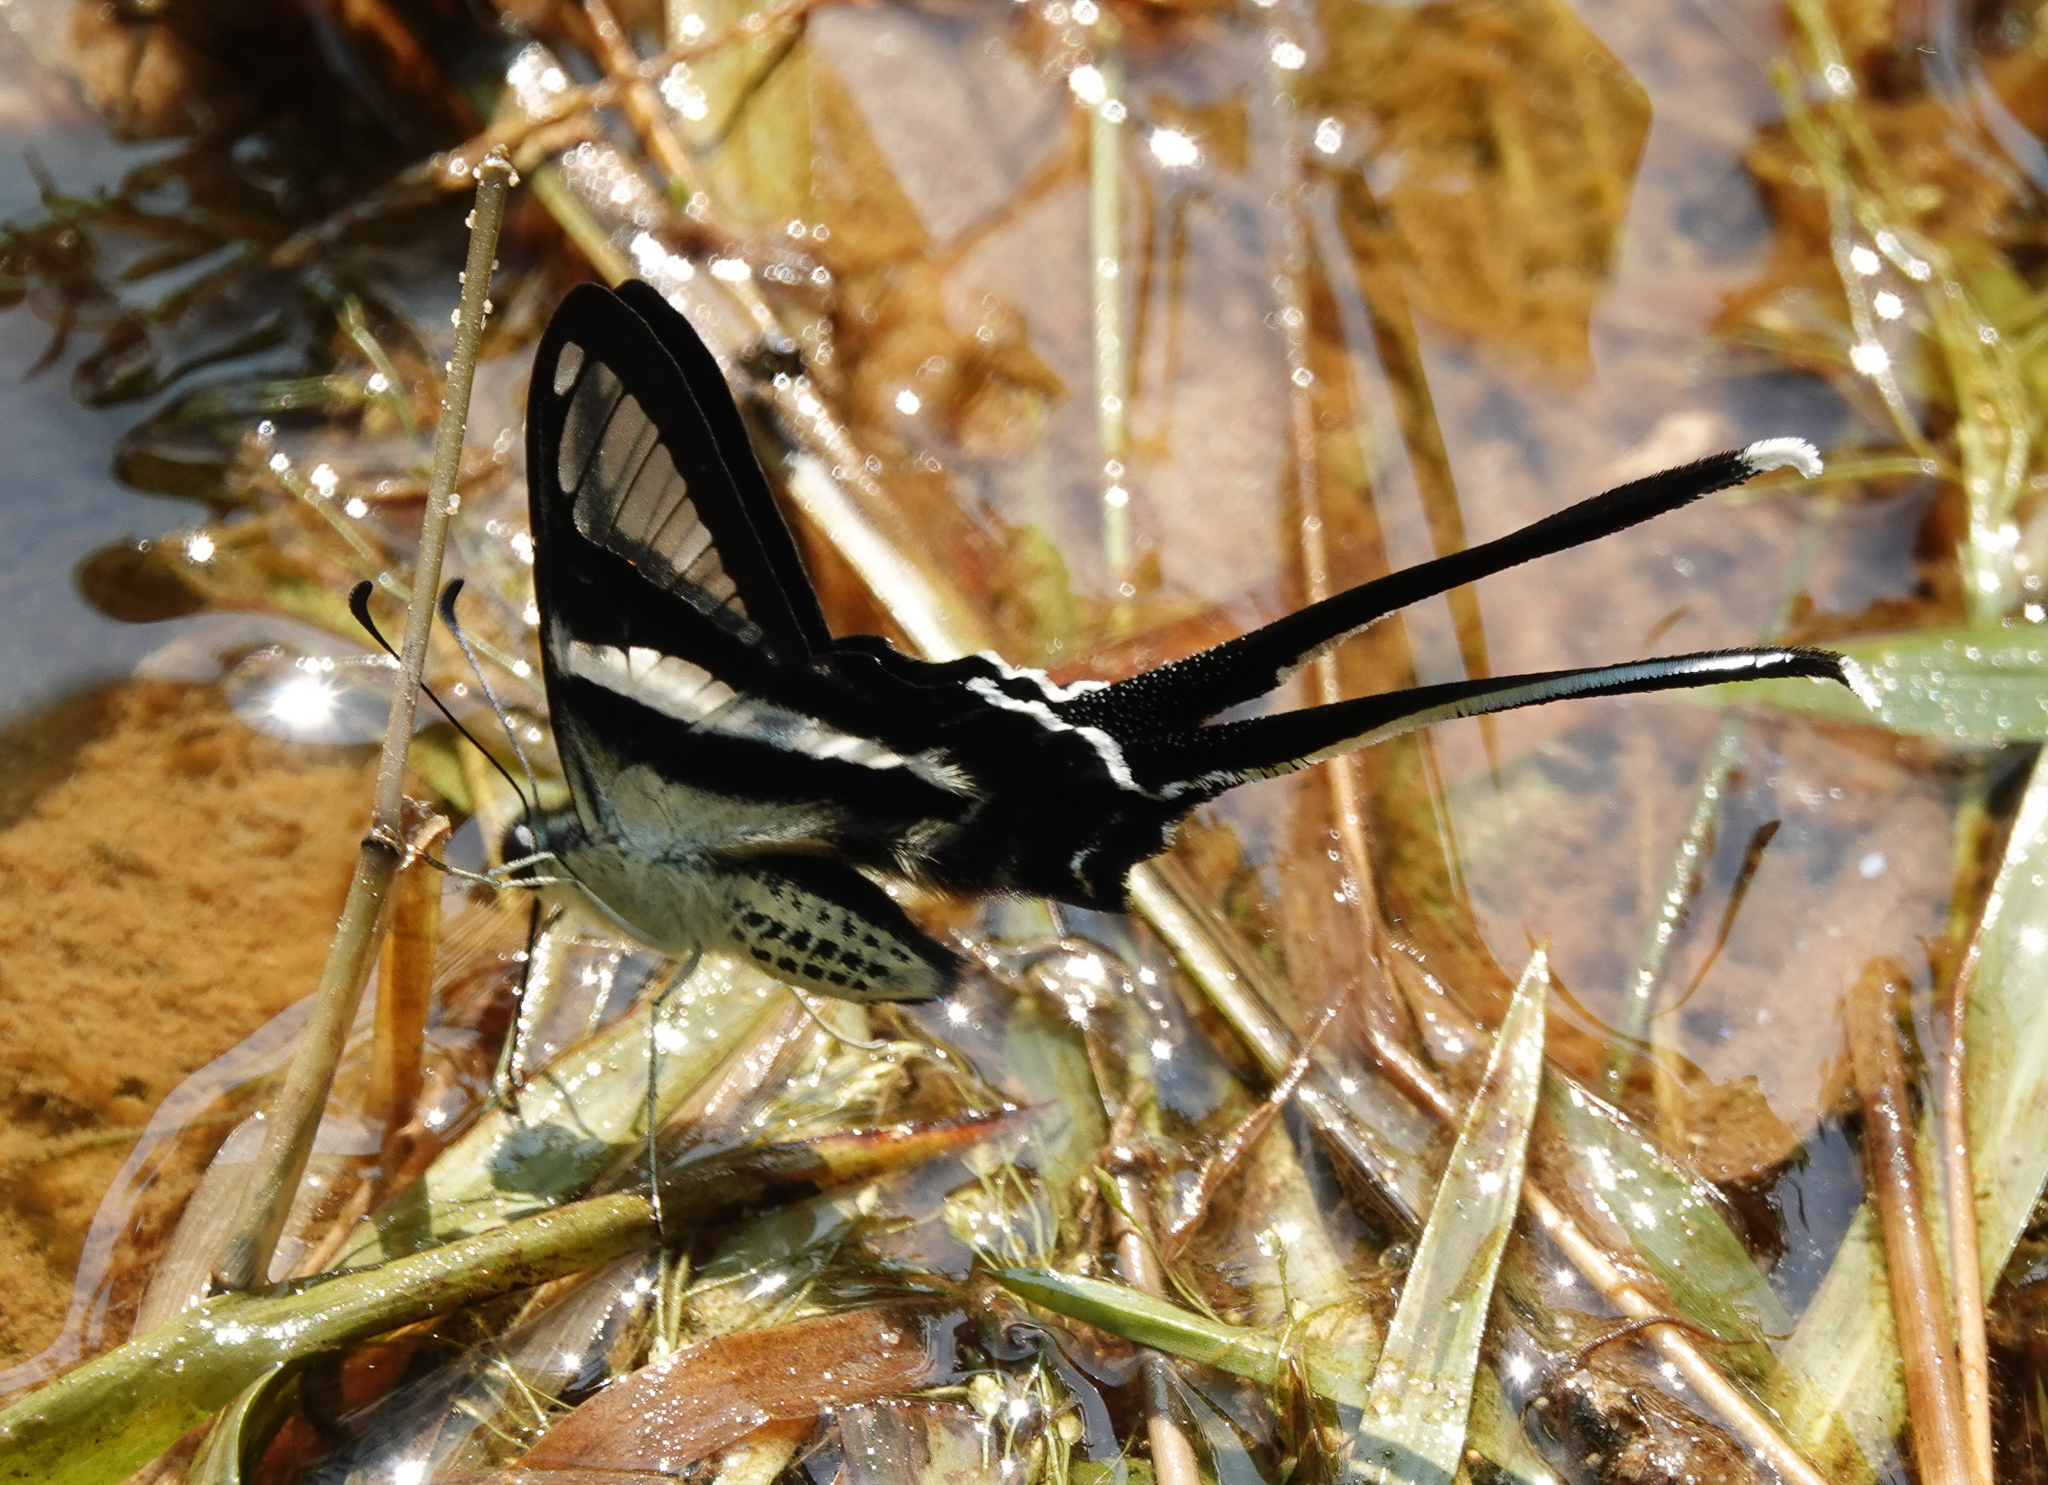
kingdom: Animalia
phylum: Arthropoda
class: Insecta
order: Lepidoptera
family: Papilionidae
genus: Lamproptera
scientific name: Lamproptera curius
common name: White dragontail
